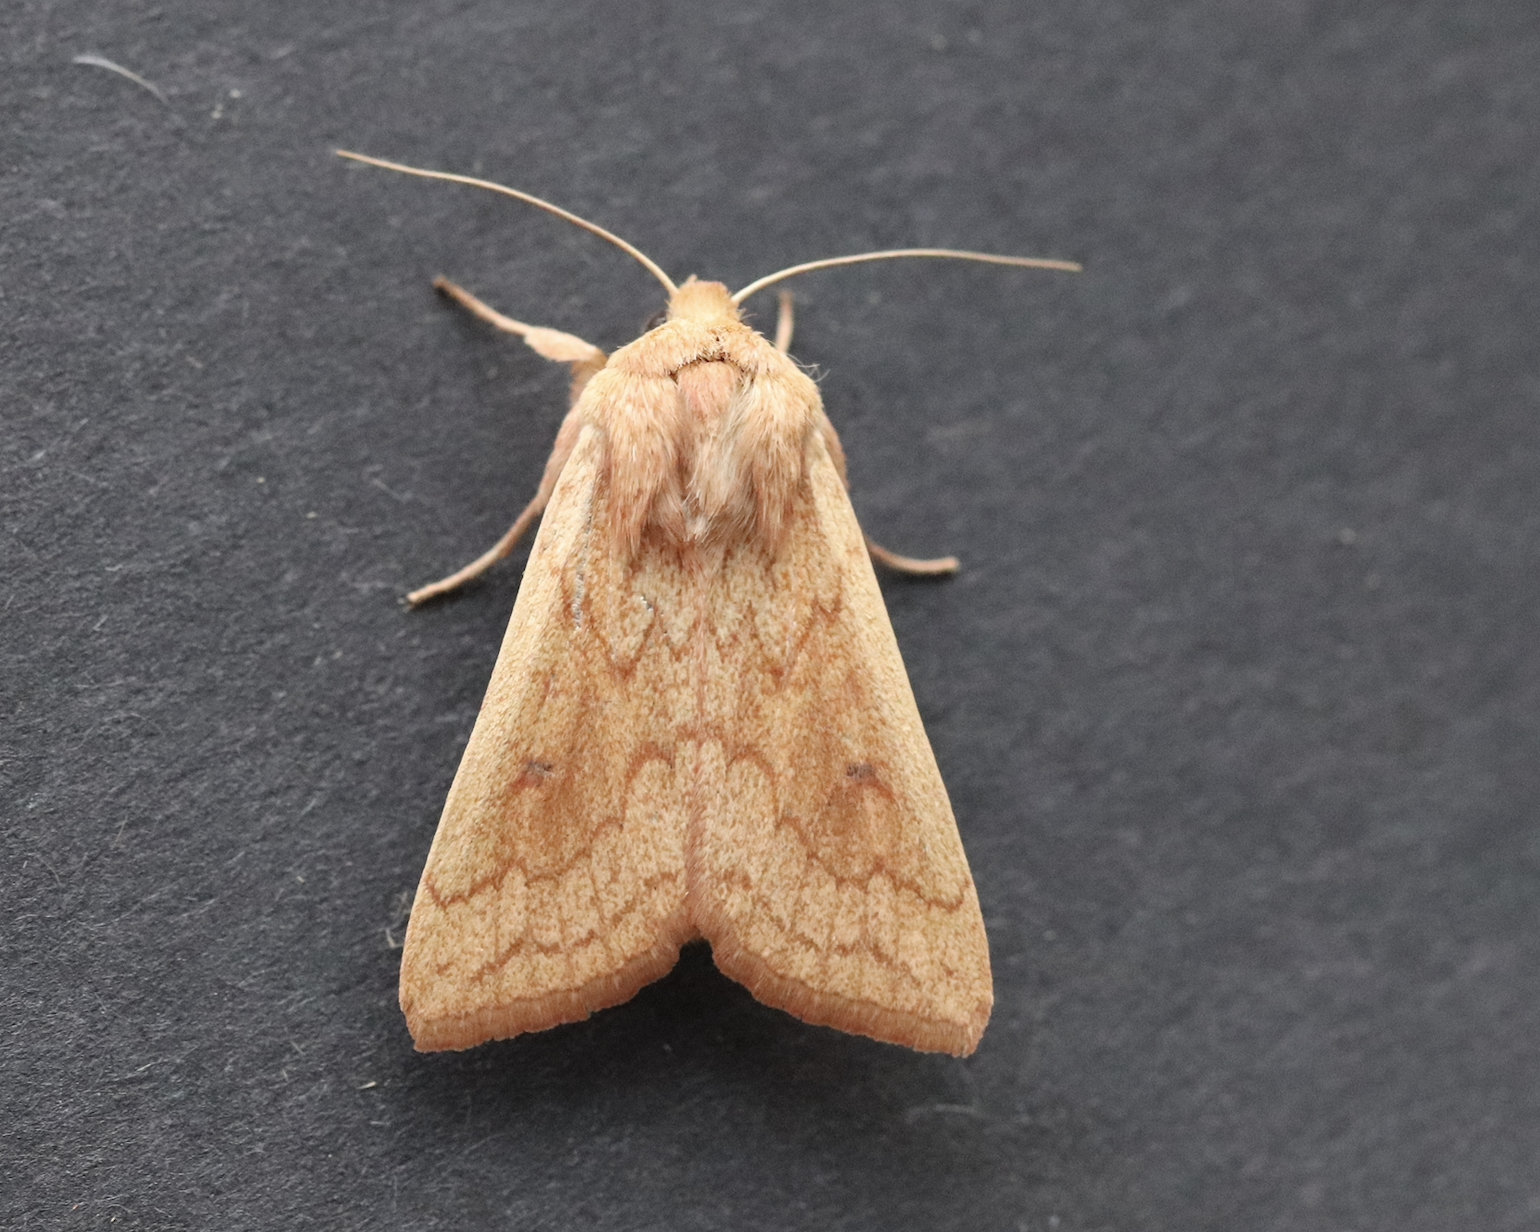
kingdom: Animalia
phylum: Arthropoda
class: Insecta
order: Lepidoptera
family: Noctuidae
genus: Mythimna
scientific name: Mythimna vitellina
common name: Delicate
